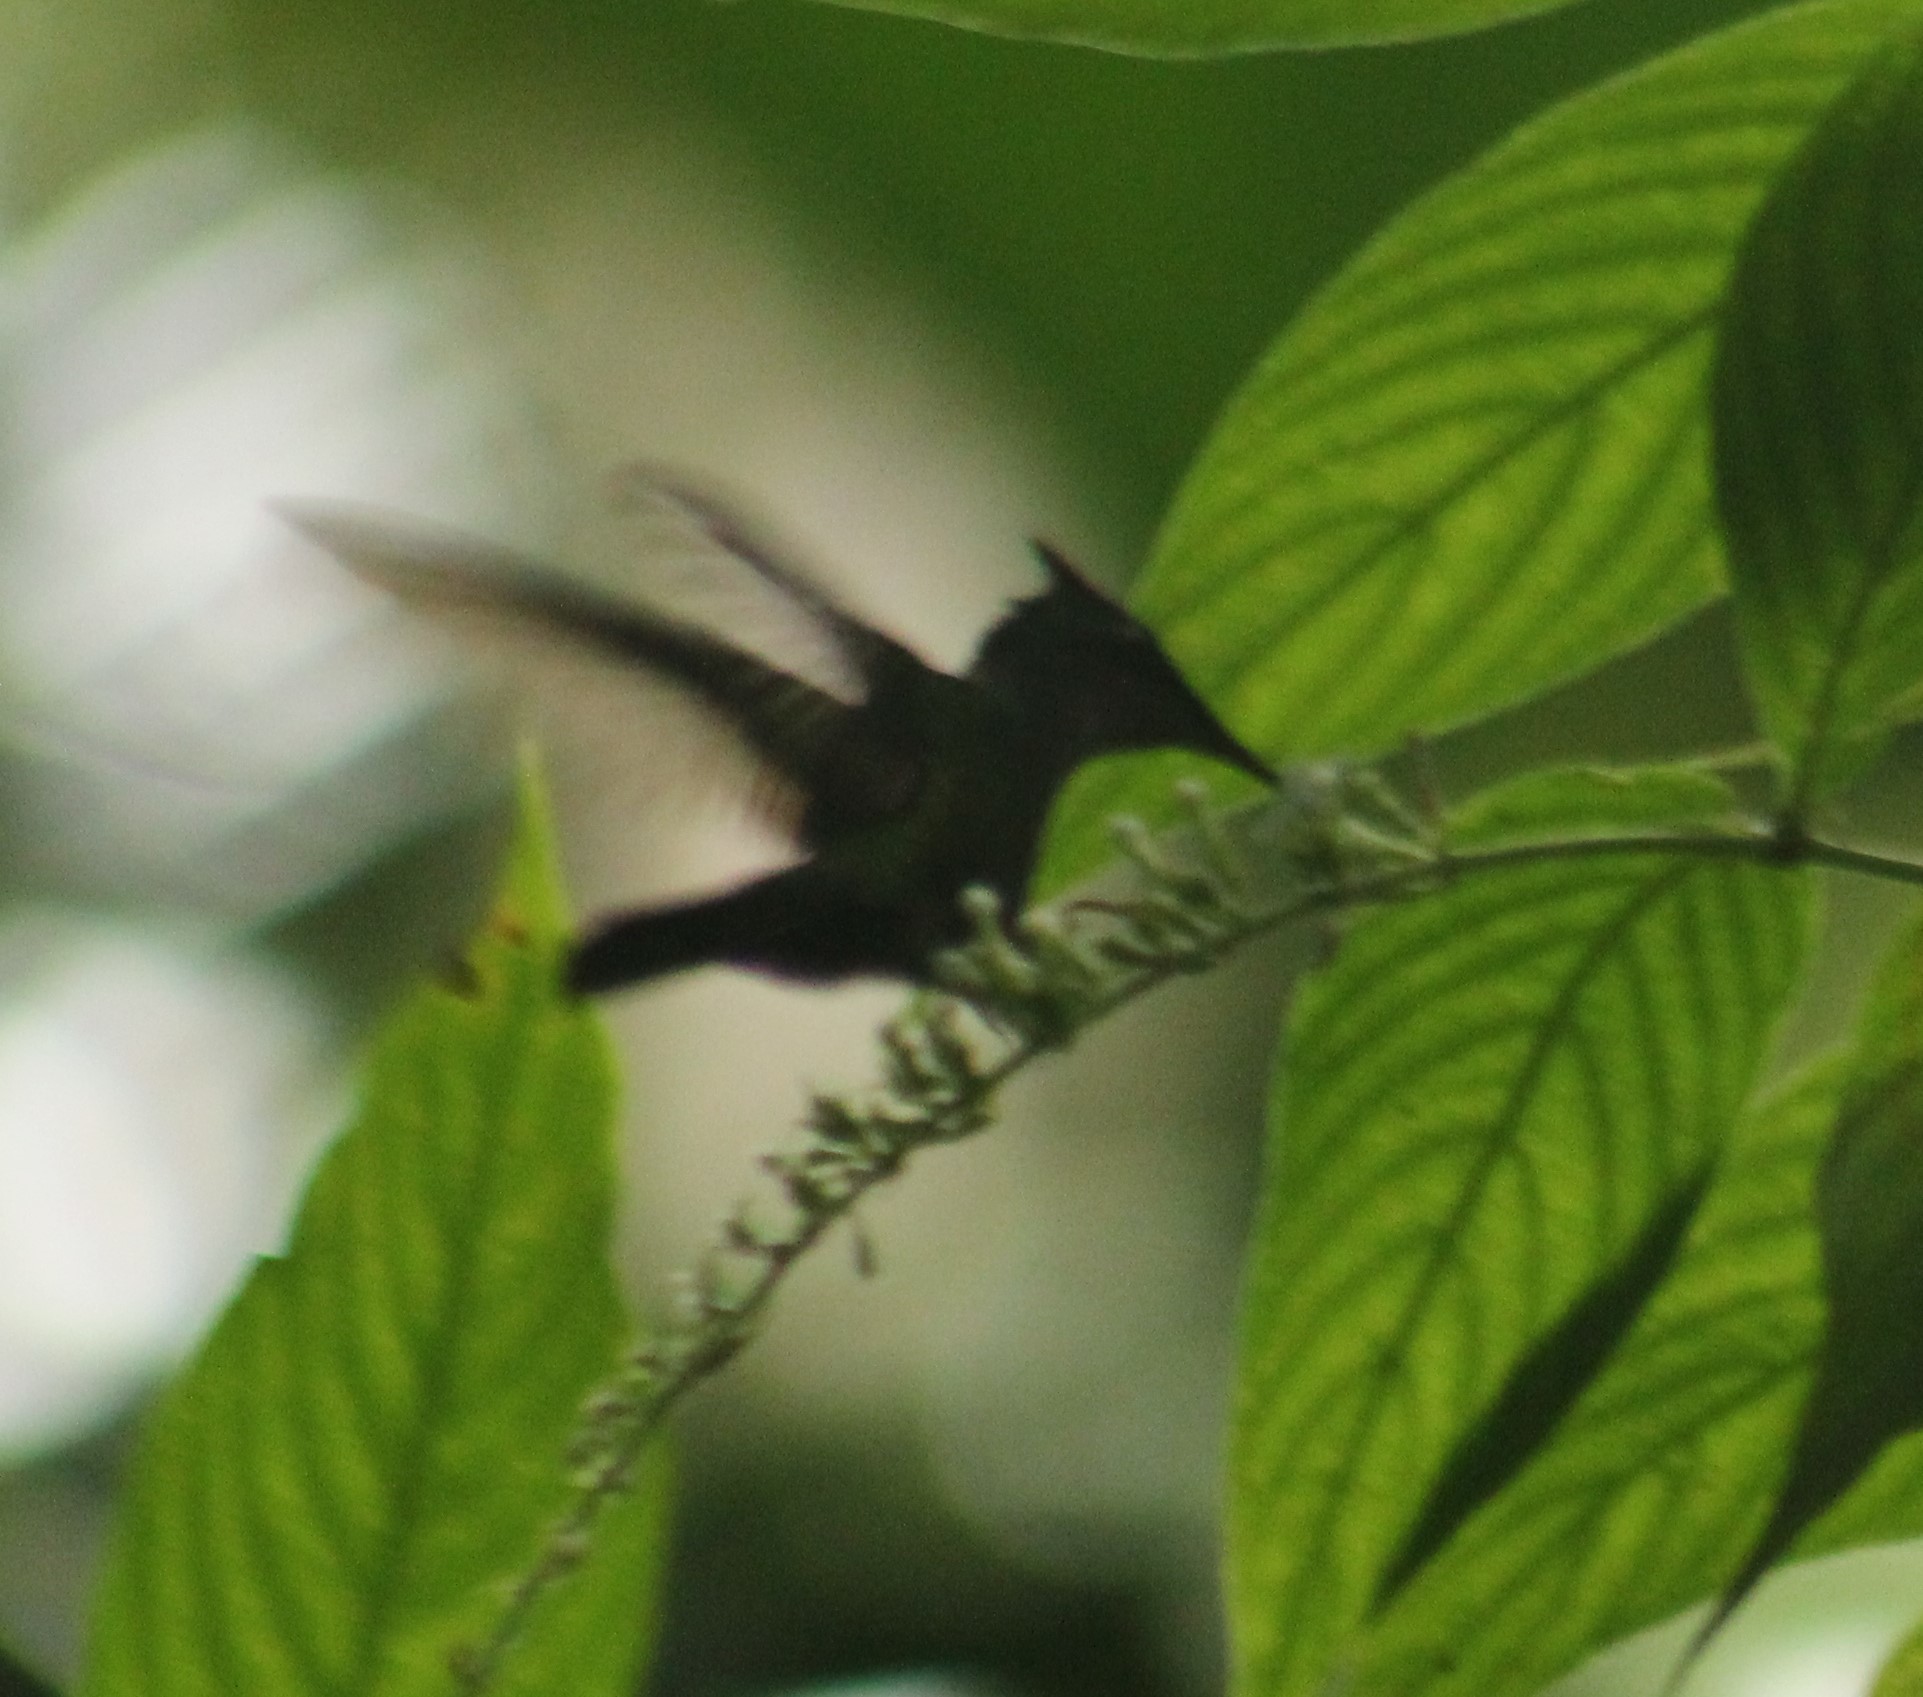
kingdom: Animalia
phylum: Chordata
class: Aves
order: Apodiformes
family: Trochilidae
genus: Orthorhyncus
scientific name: Orthorhyncus cristatus
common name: Antillean crested hummingbird
